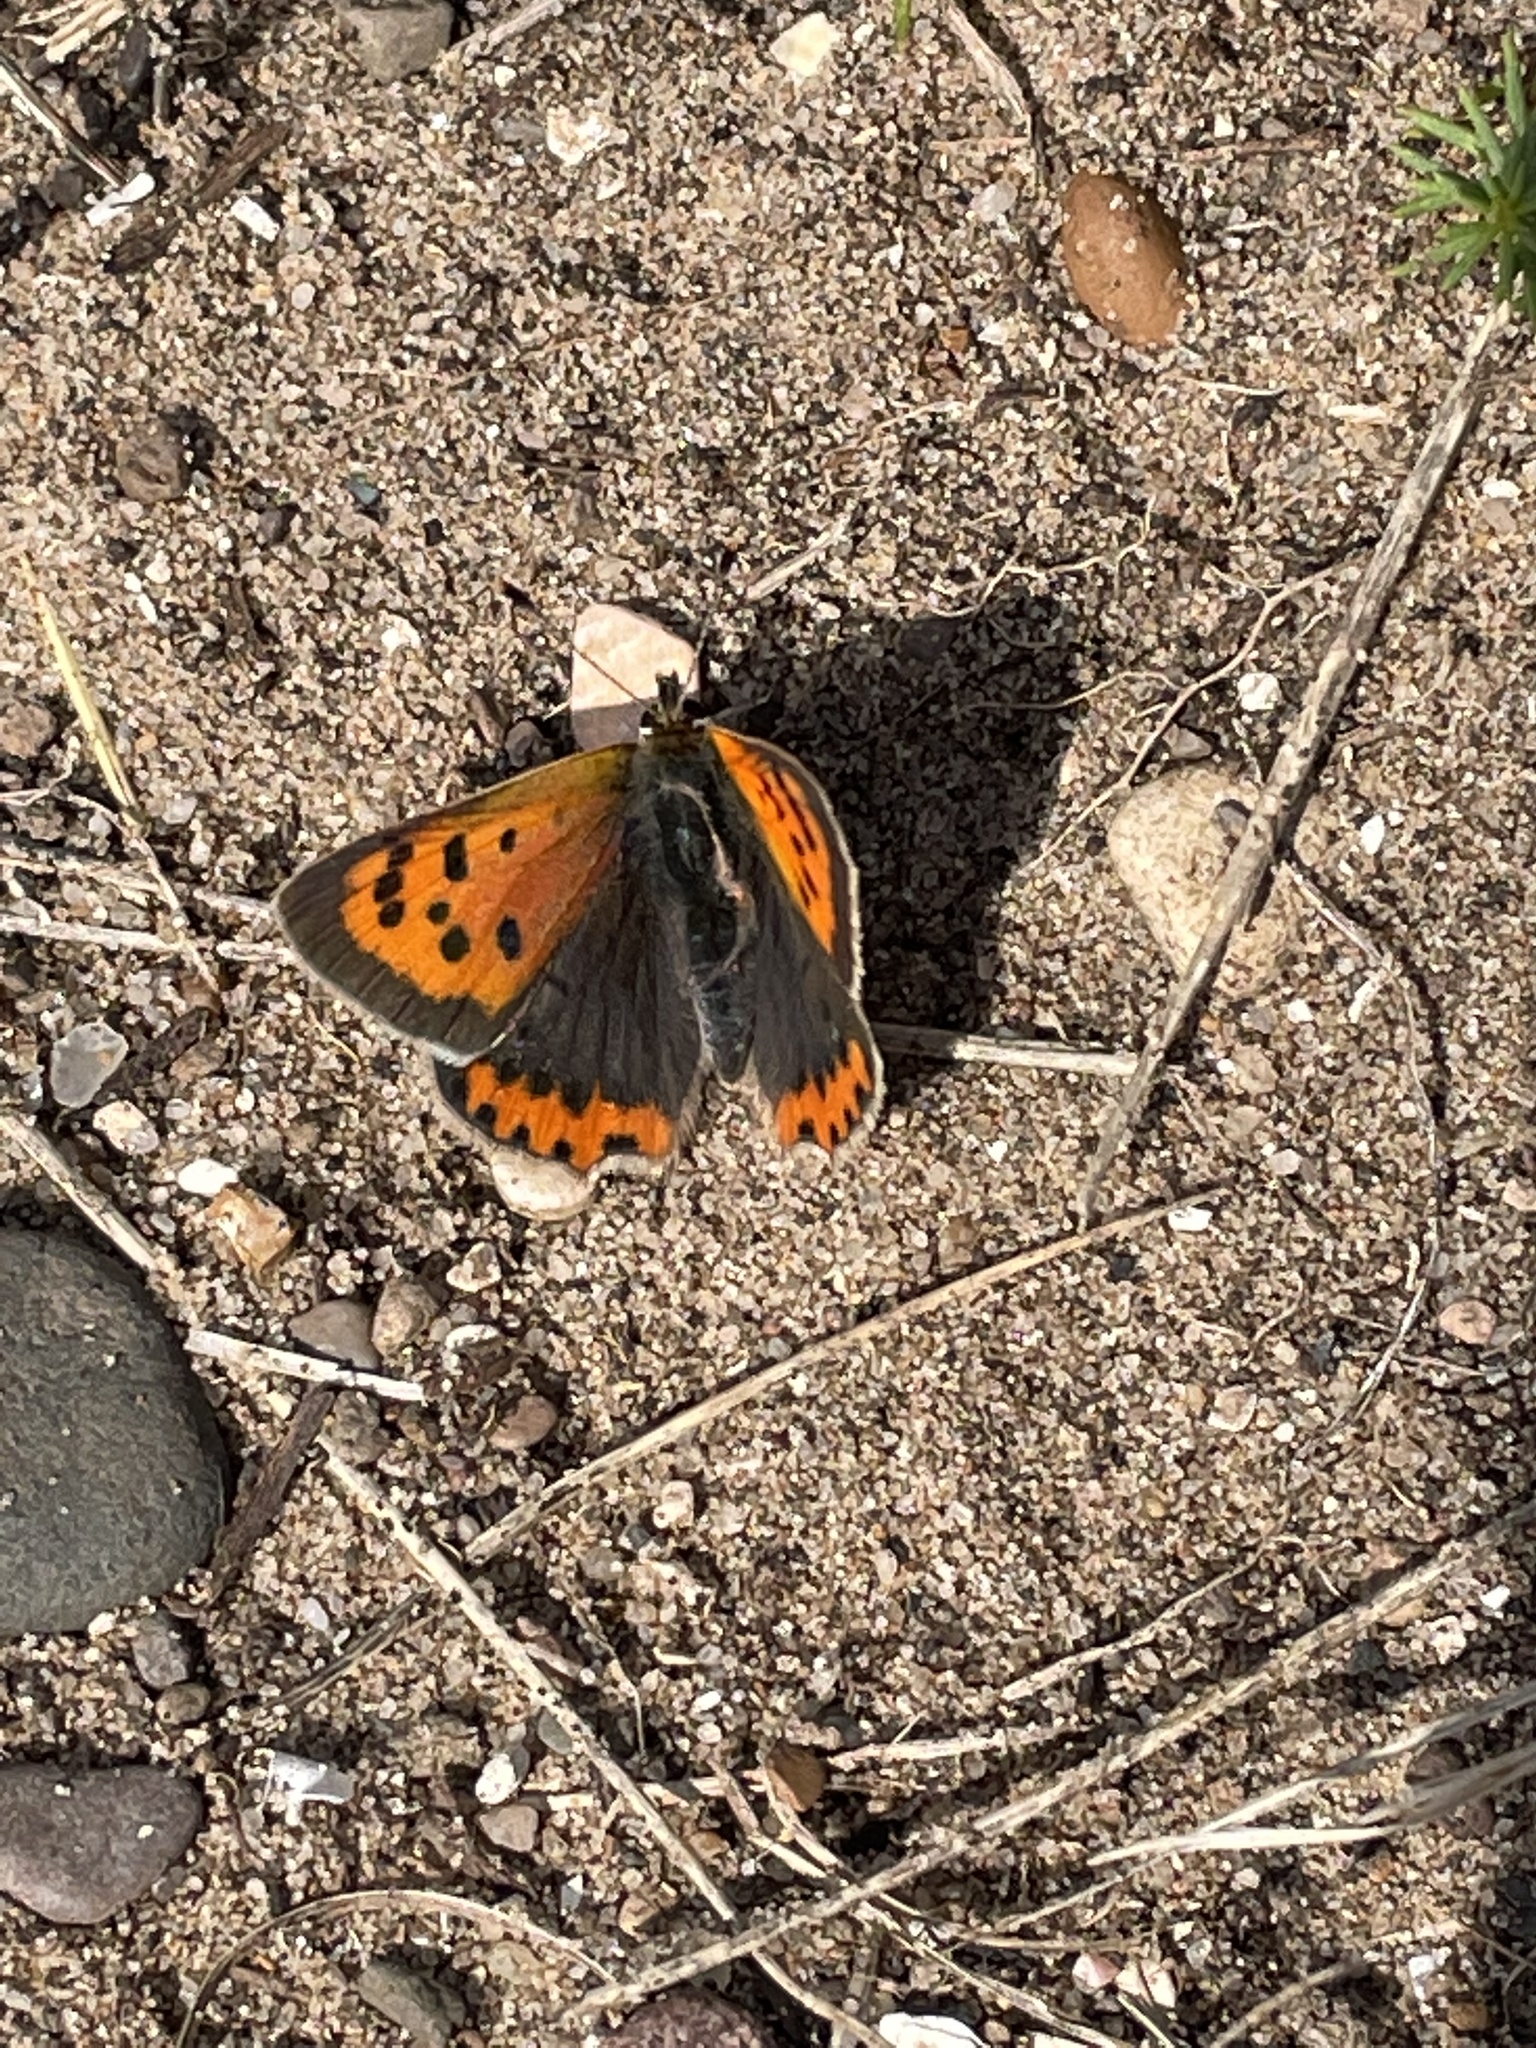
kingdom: Animalia
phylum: Arthropoda
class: Insecta
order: Lepidoptera
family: Lycaenidae
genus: Lycaena
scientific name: Lycaena phlaeas
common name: Small copper
